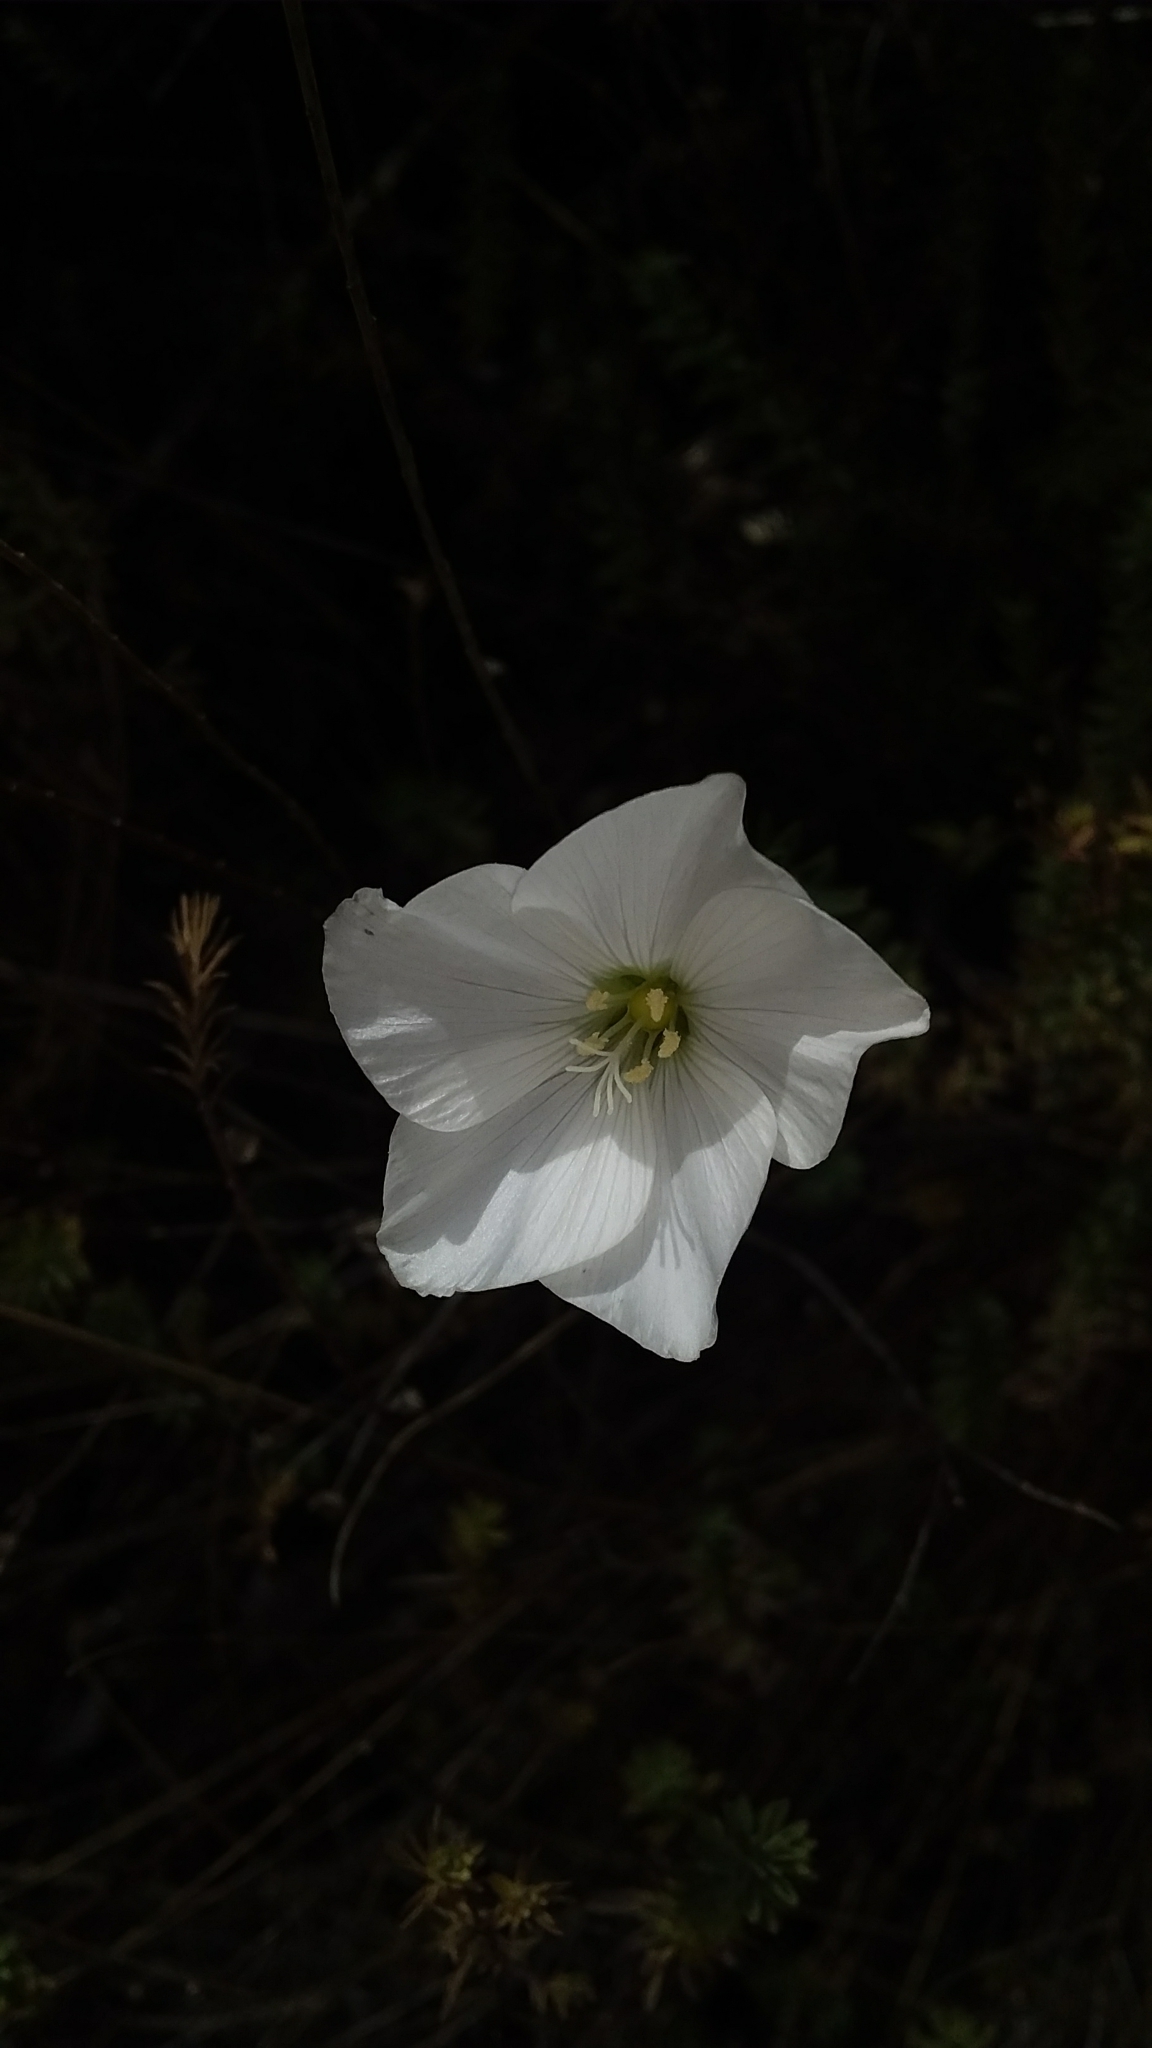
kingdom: Plantae
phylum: Tracheophyta
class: Magnoliopsida
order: Malpighiales
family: Linaceae
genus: Linum
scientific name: Linum monogynum
